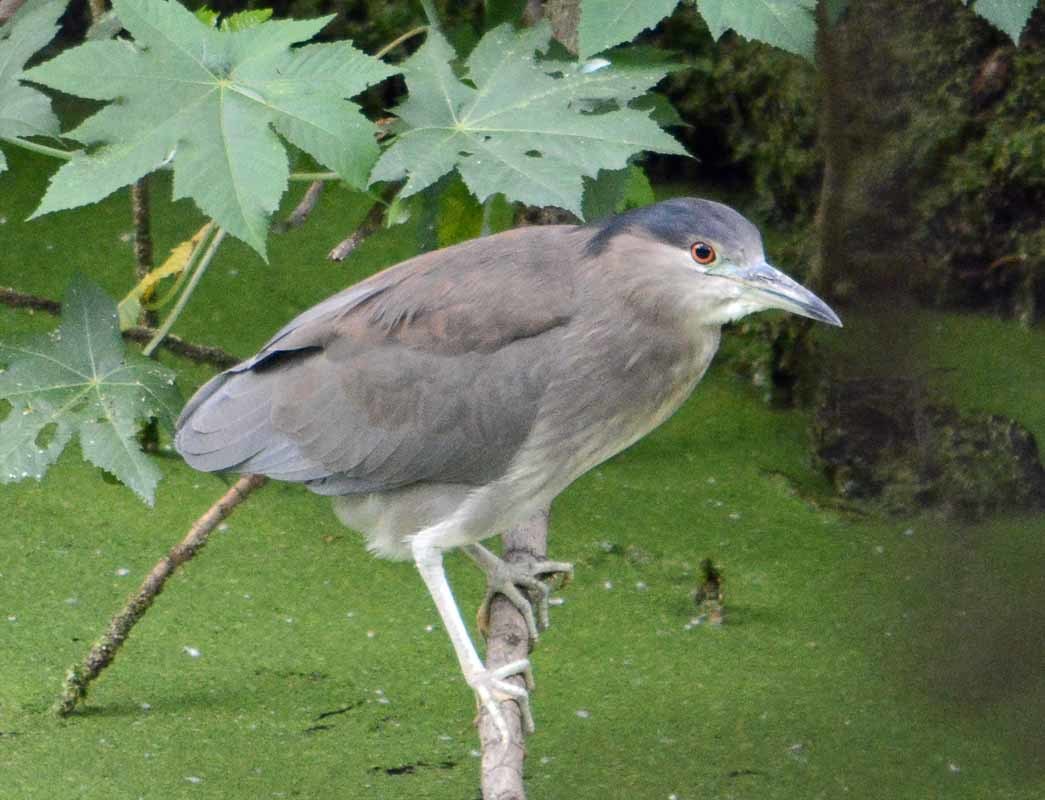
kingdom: Animalia
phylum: Chordata
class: Aves
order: Pelecaniformes
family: Ardeidae
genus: Nycticorax
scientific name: Nycticorax nycticorax
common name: Black-crowned night heron
